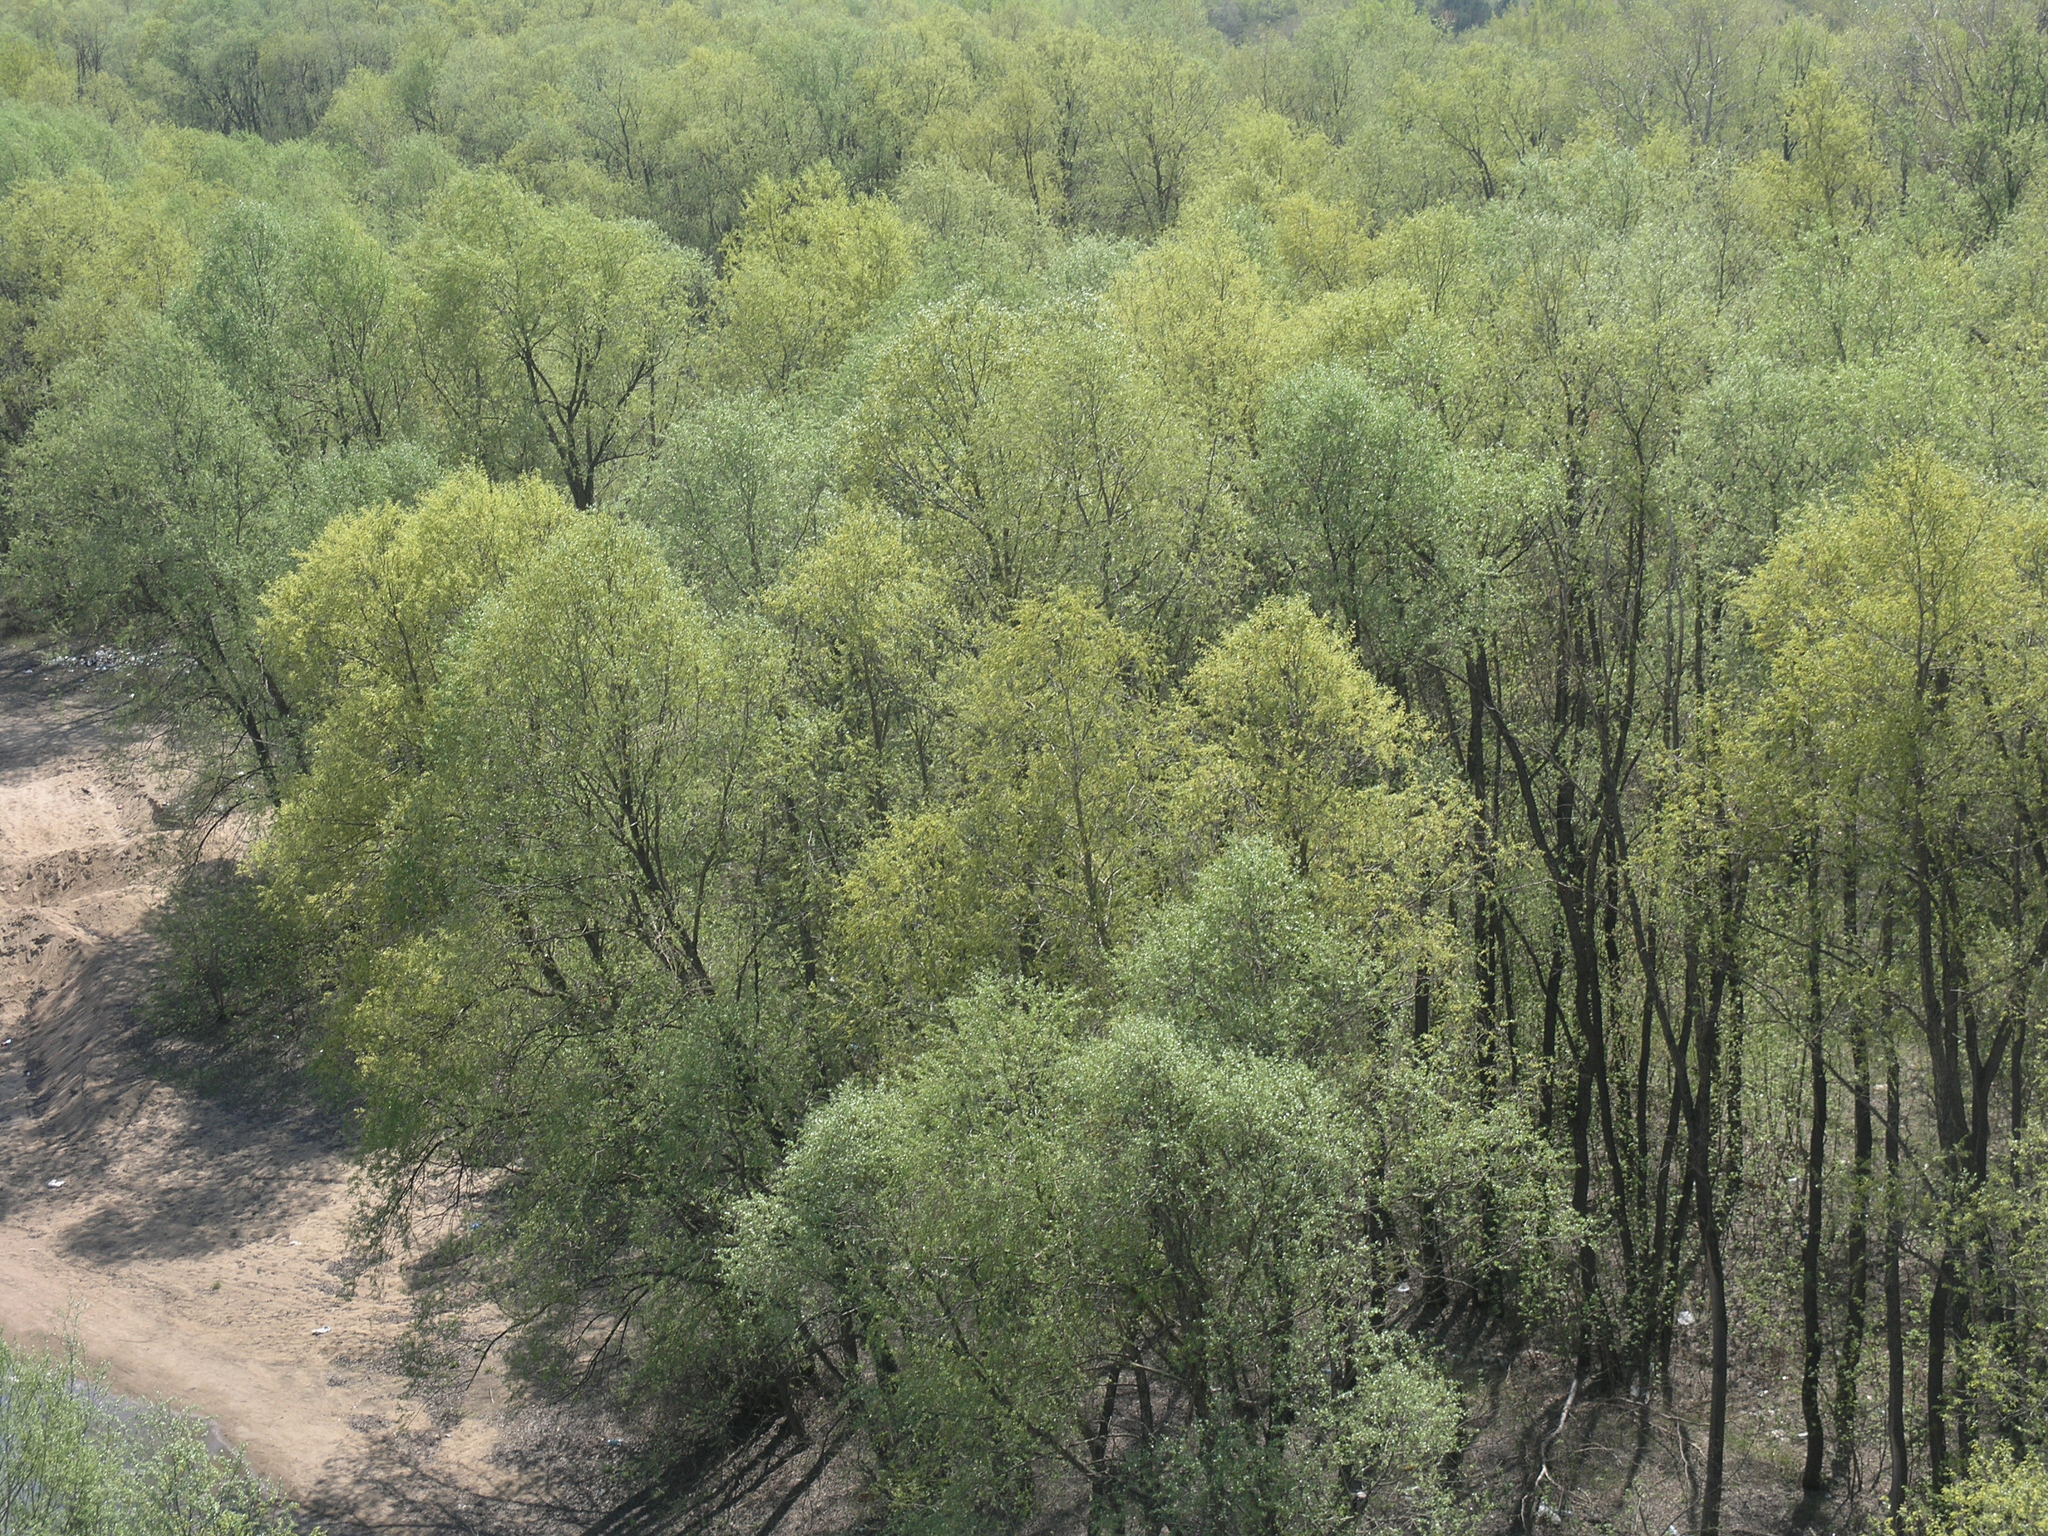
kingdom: Plantae
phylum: Tracheophyta
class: Magnoliopsida
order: Malpighiales
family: Salicaceae
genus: Salix
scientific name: Salix alba
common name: White willow
